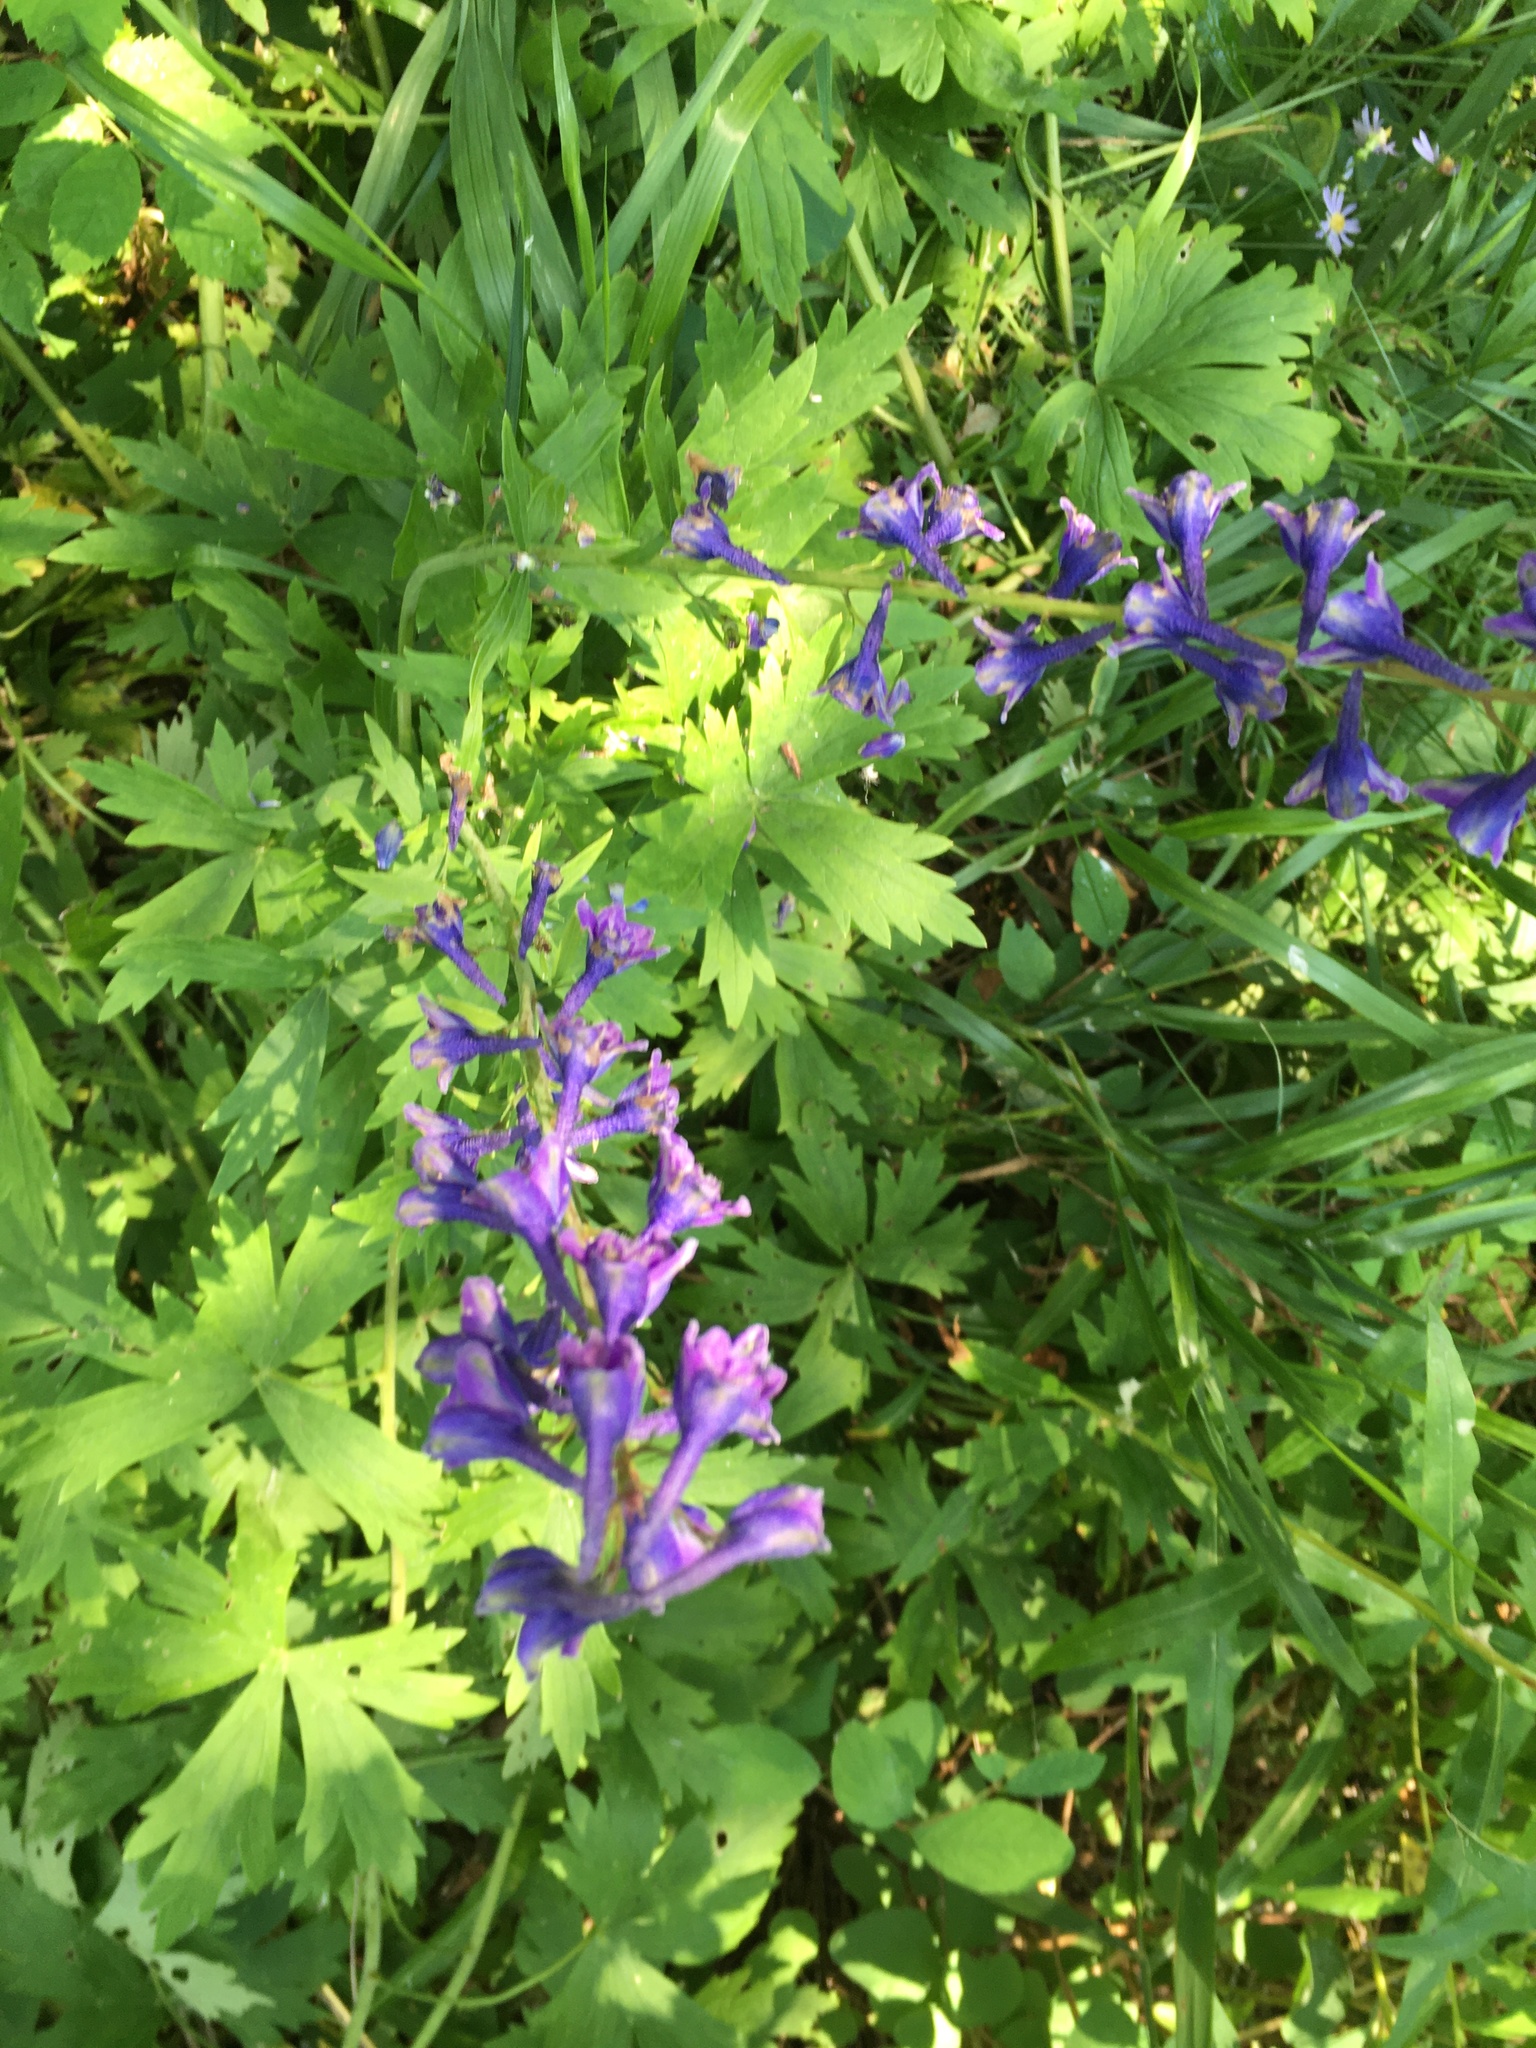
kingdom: Plantae
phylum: Tracheophyta
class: Magnoliopsida
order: Ranunculales
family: Ranunculaceae
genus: Delphinium
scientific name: Delphinium glaucum
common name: Brown's larkspur
